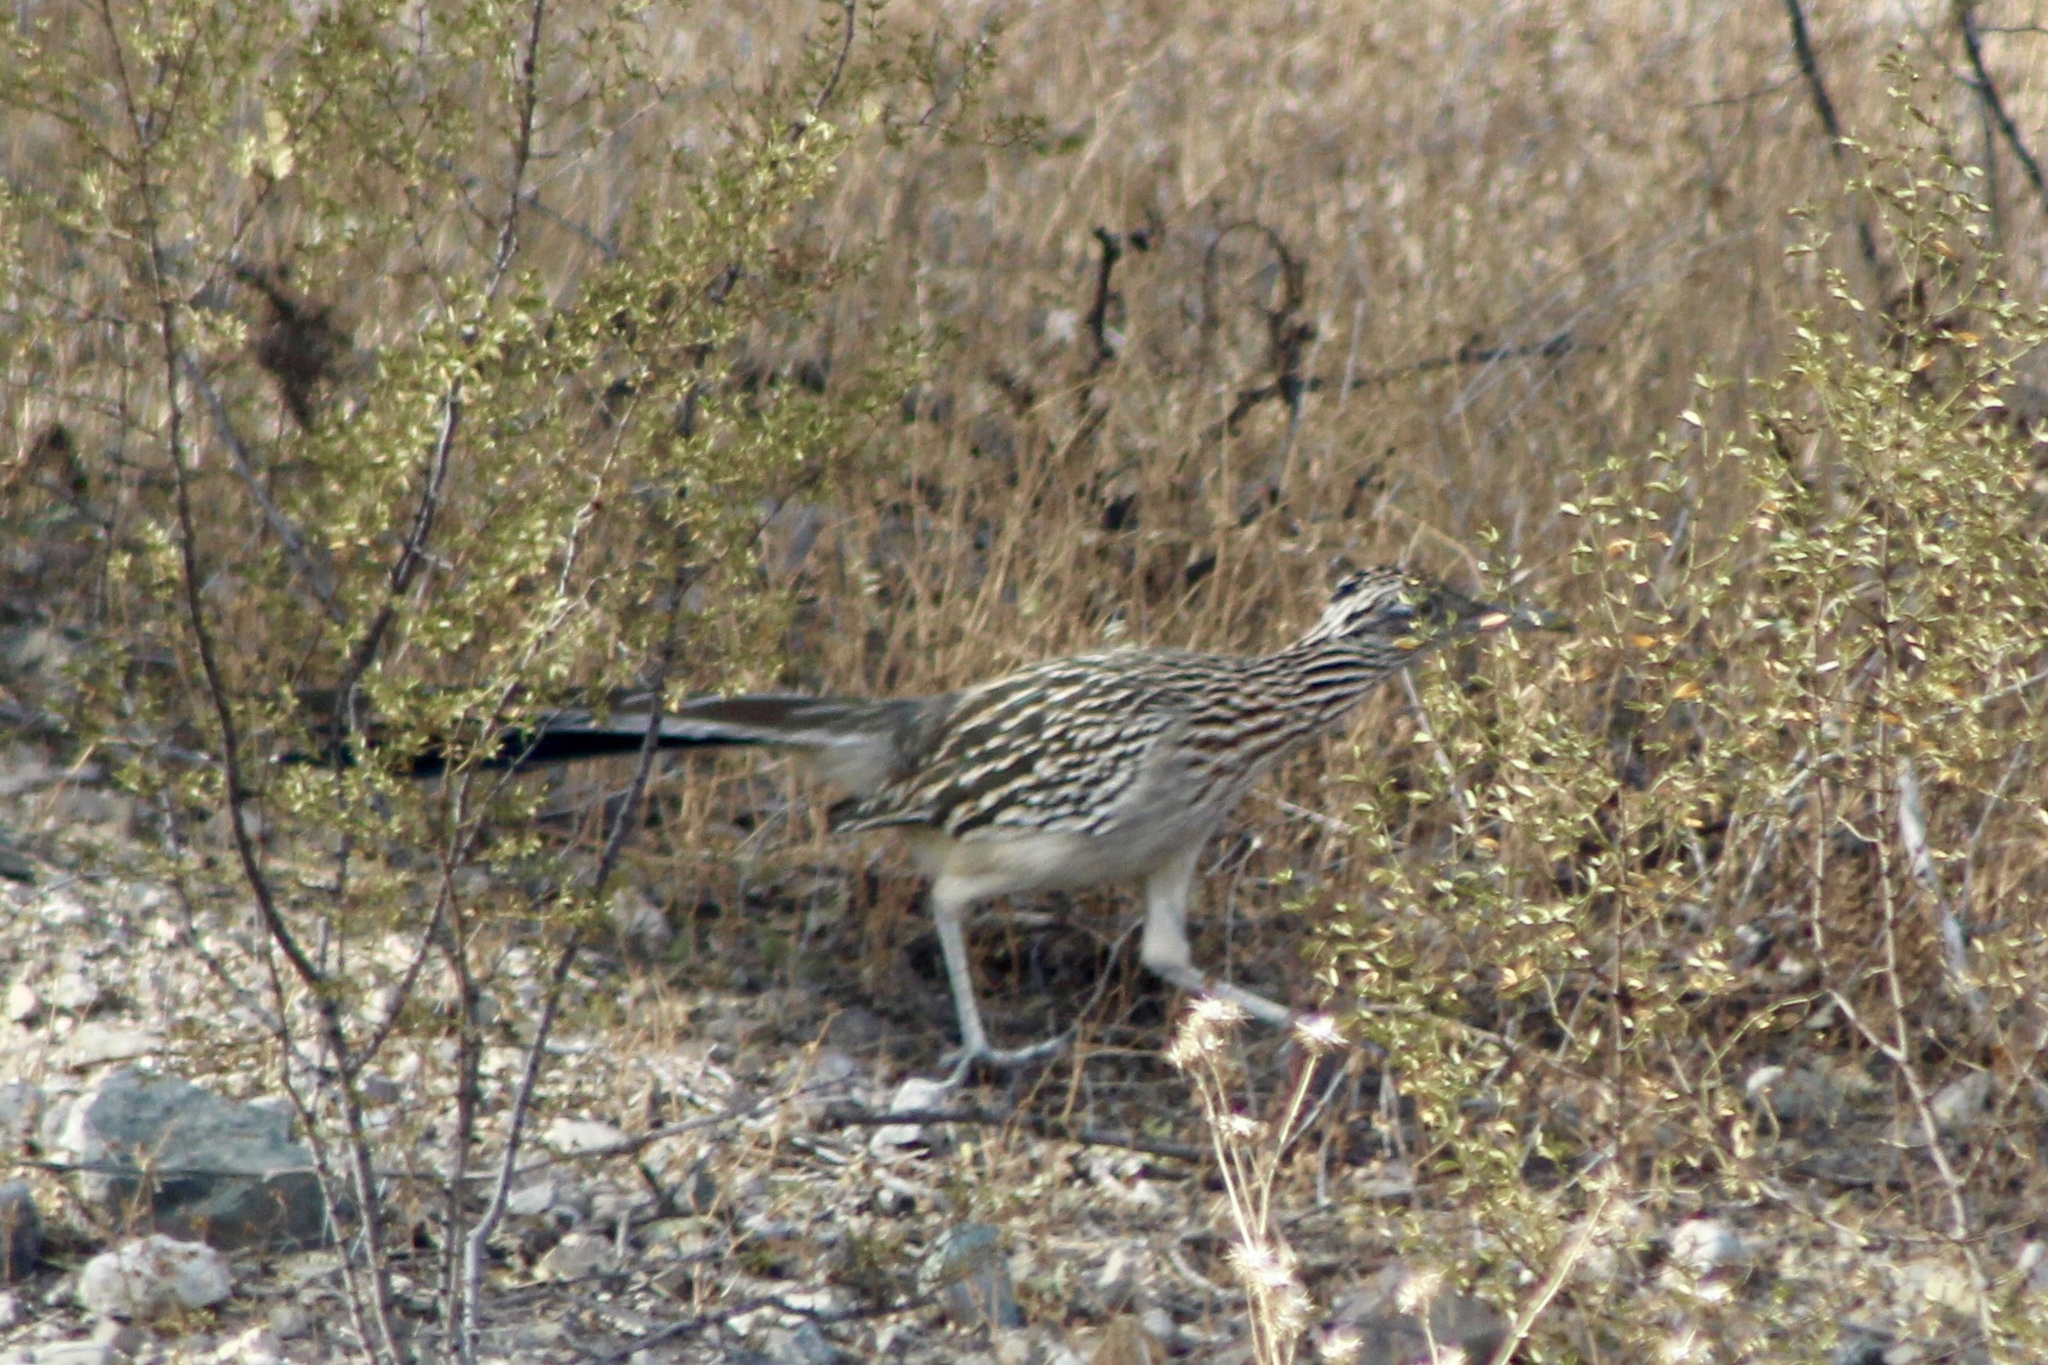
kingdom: Animalia
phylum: Chordata
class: Aves
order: Cuculiformes
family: Cuculidae
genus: Geococcyx
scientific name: Geococcyx californianus
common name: Greater roadrunner
